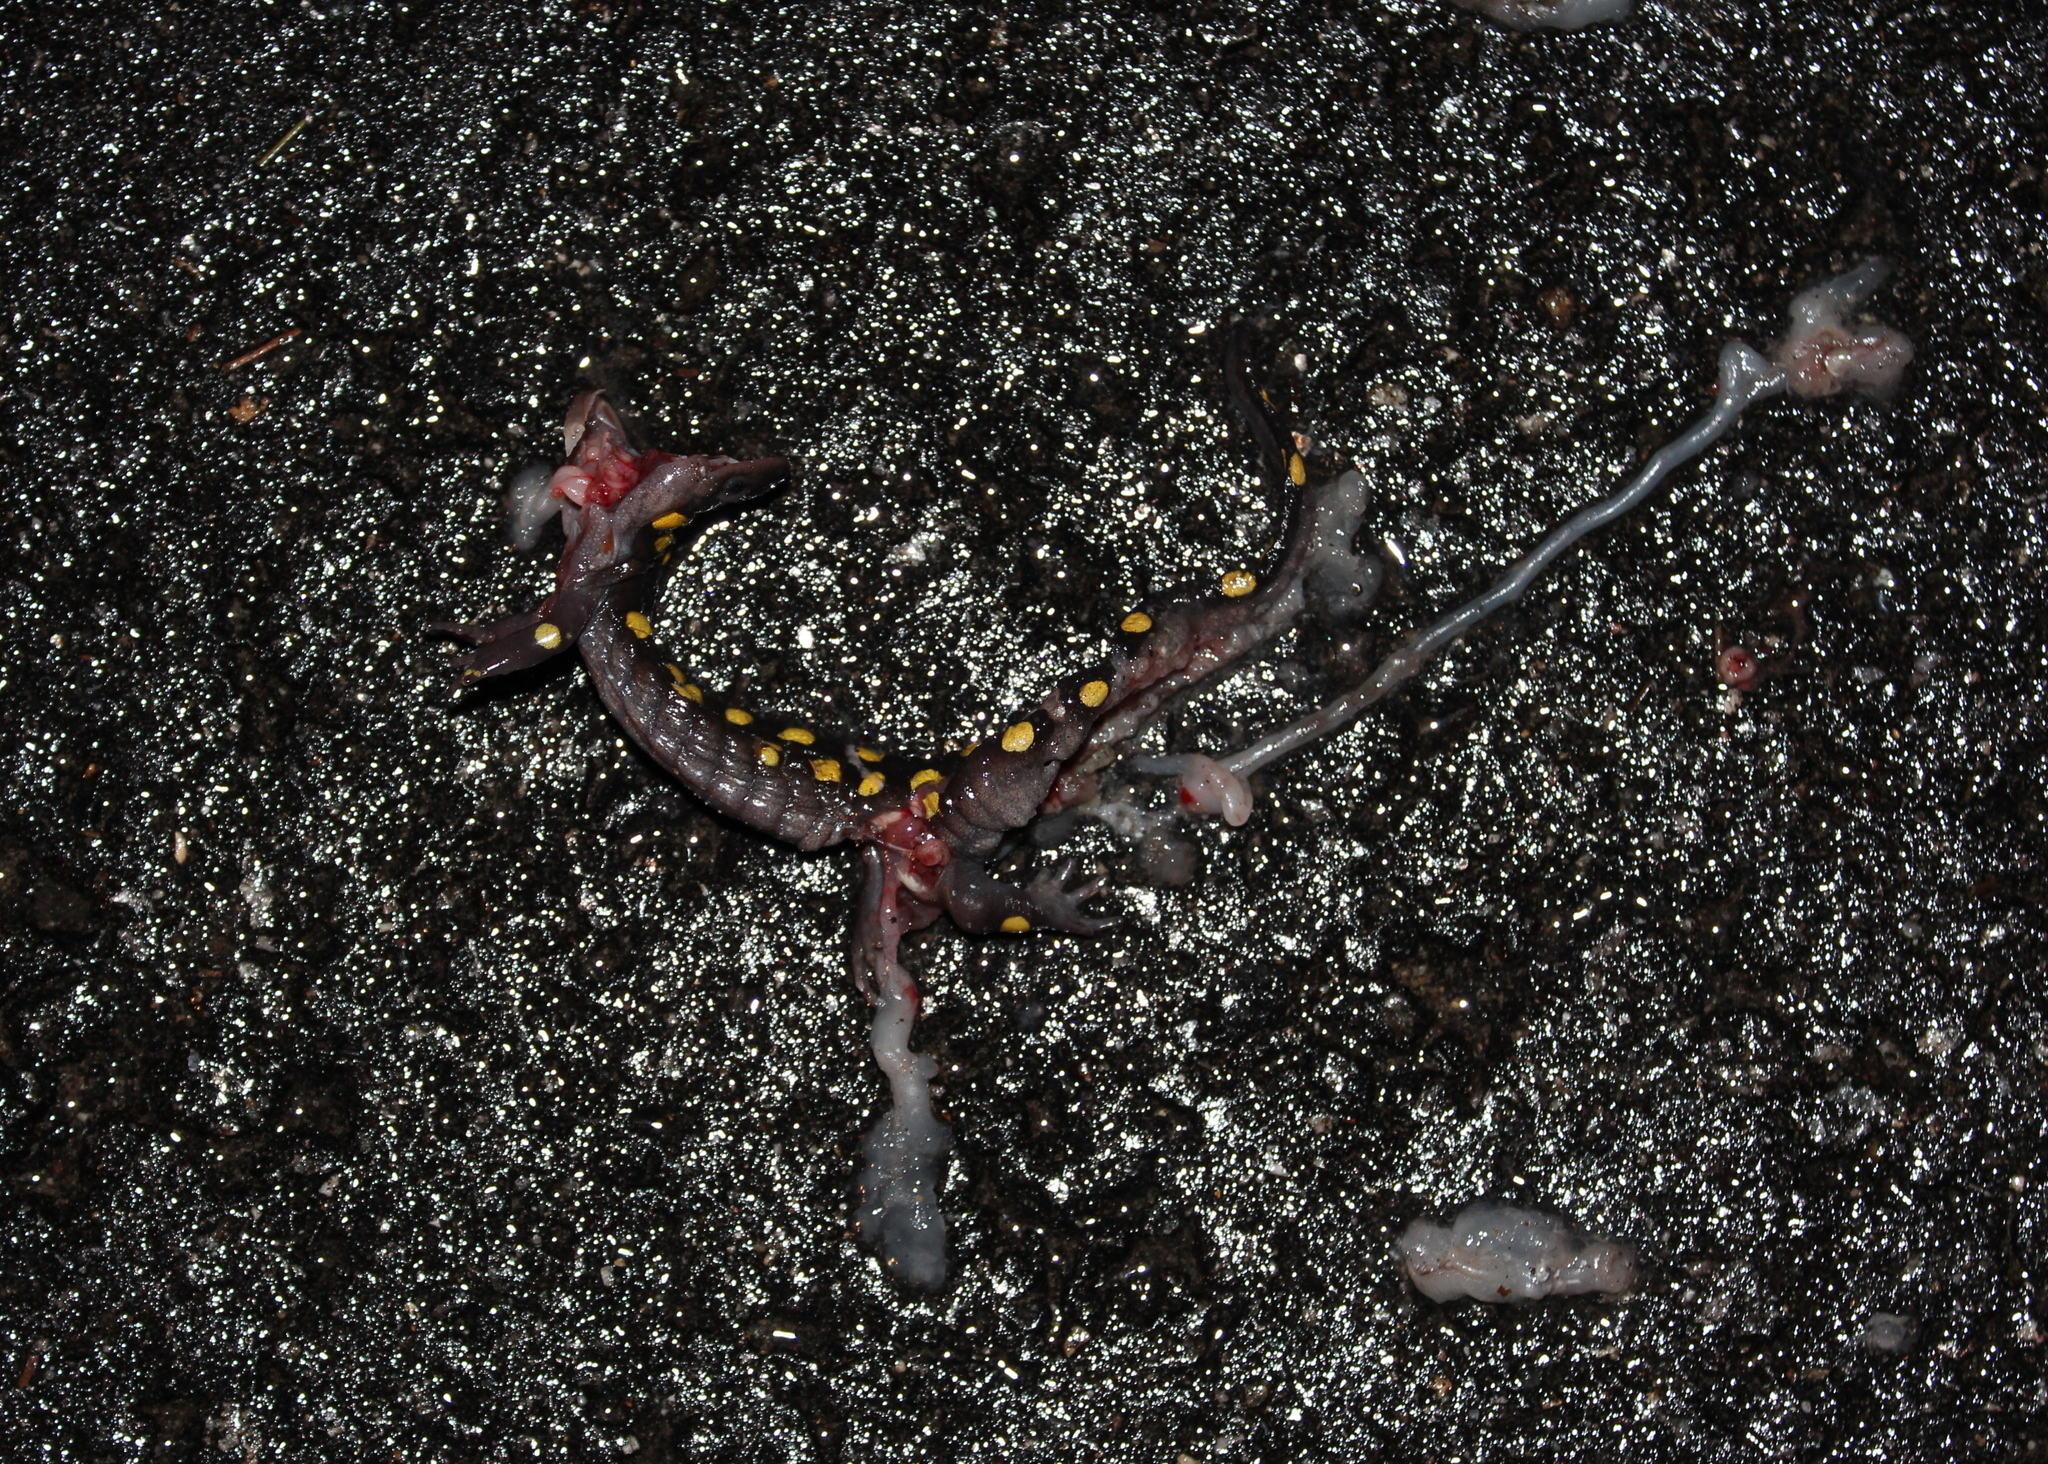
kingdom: Animalia
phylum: Chordata
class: Amphibia
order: Caudata
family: Ambystomatidae
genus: Ambystoma
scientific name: Ambystoma maculatum
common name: Spotted salamander
